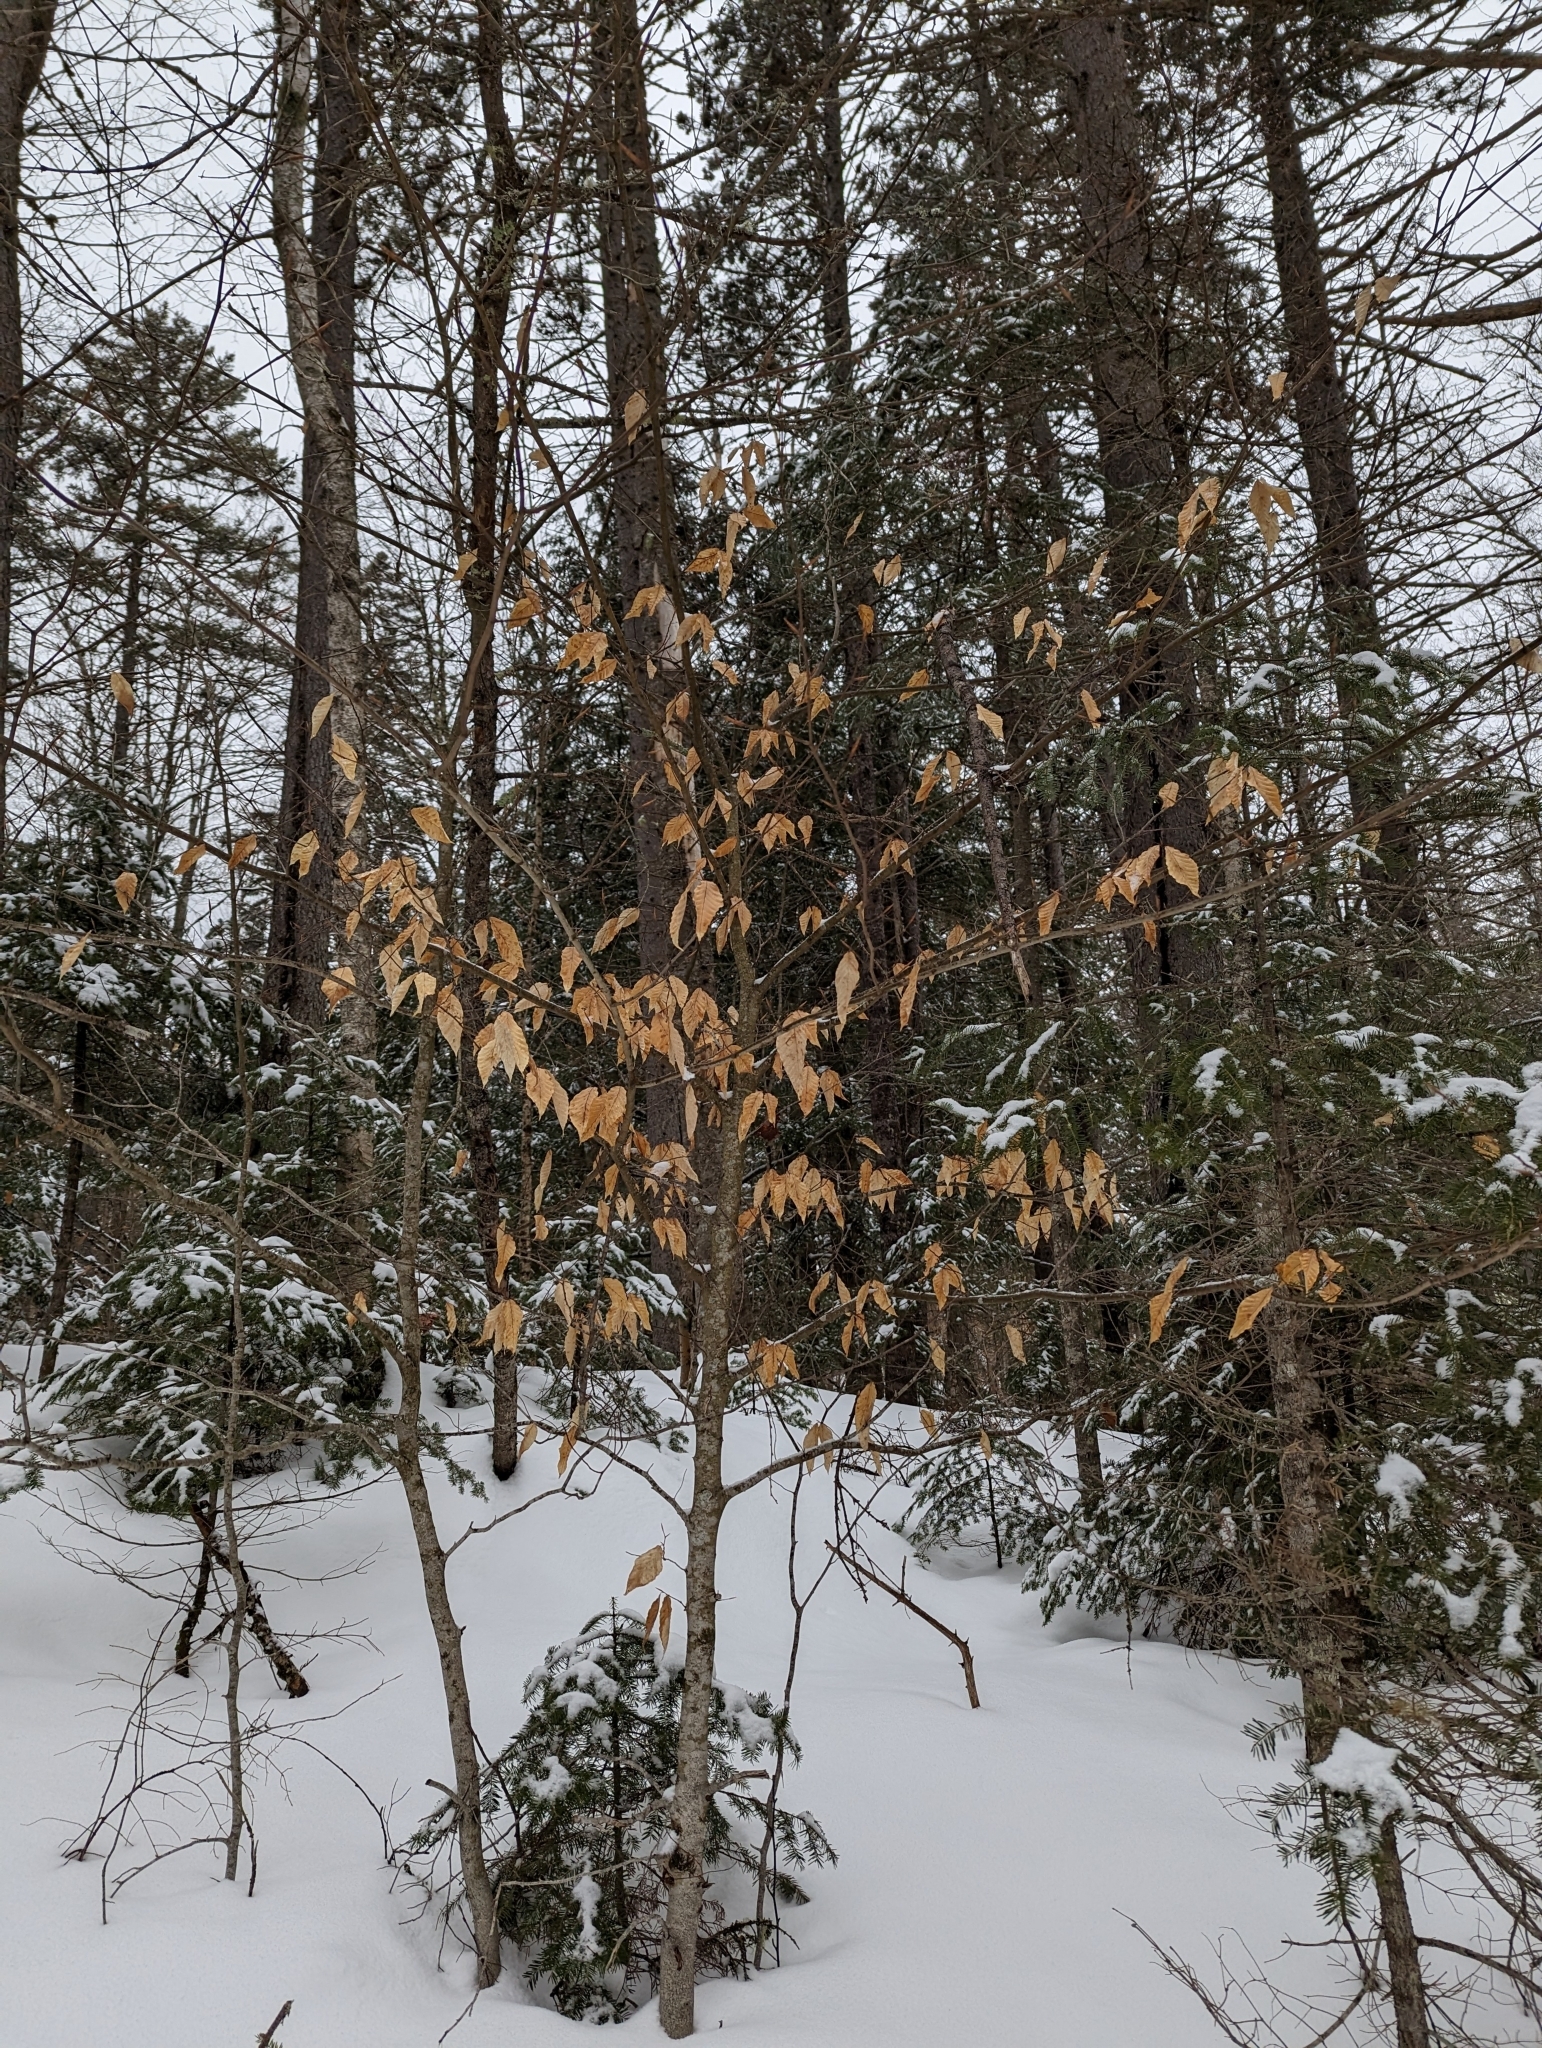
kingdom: Plantae
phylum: Tracheophyta
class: Magnoliopsida
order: Fagales
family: Fagaceae
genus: Fagus
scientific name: Fagus grandifolia
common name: American beech
